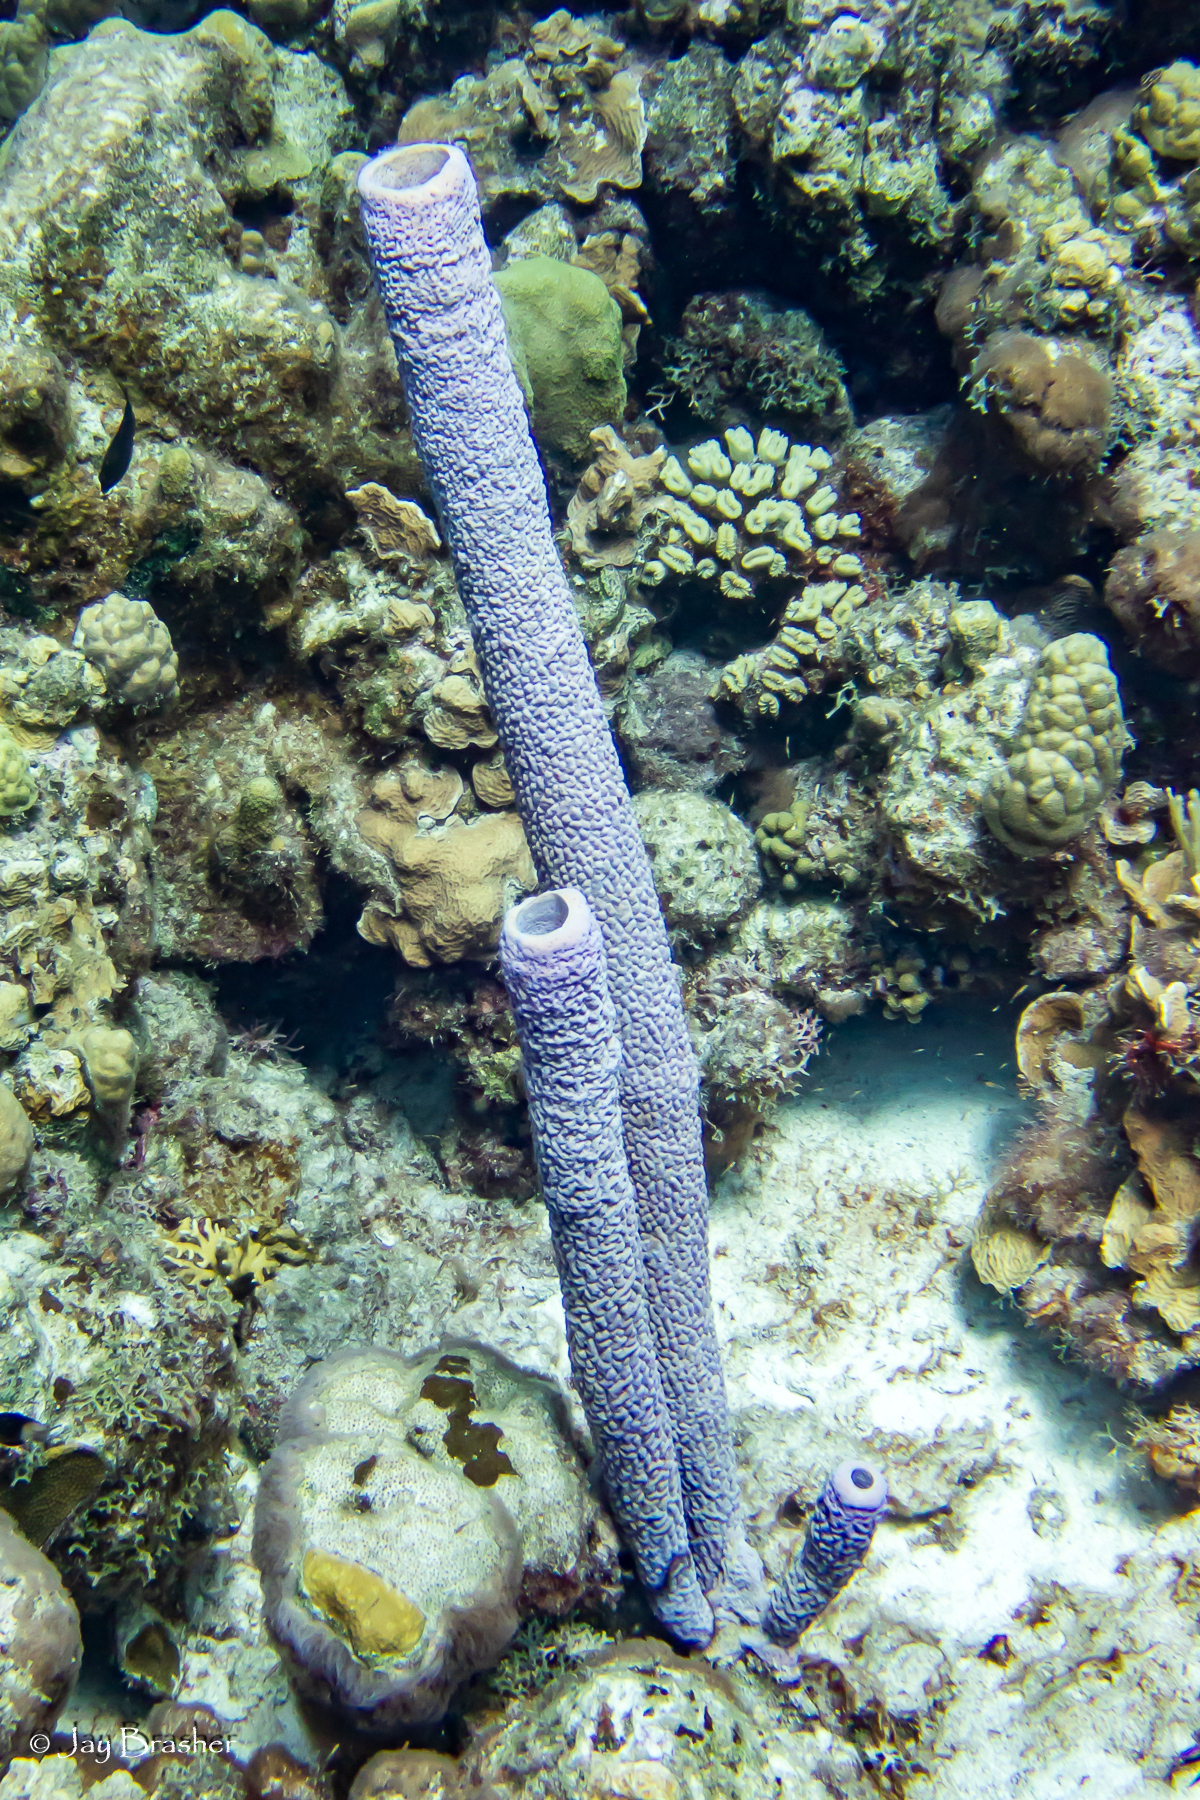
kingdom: Animalia
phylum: Porifera
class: Demospongiae
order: Verongiida
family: Aplysinidae
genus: Aplysina
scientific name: Aplysina archeri
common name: Stove-pipe sponge
